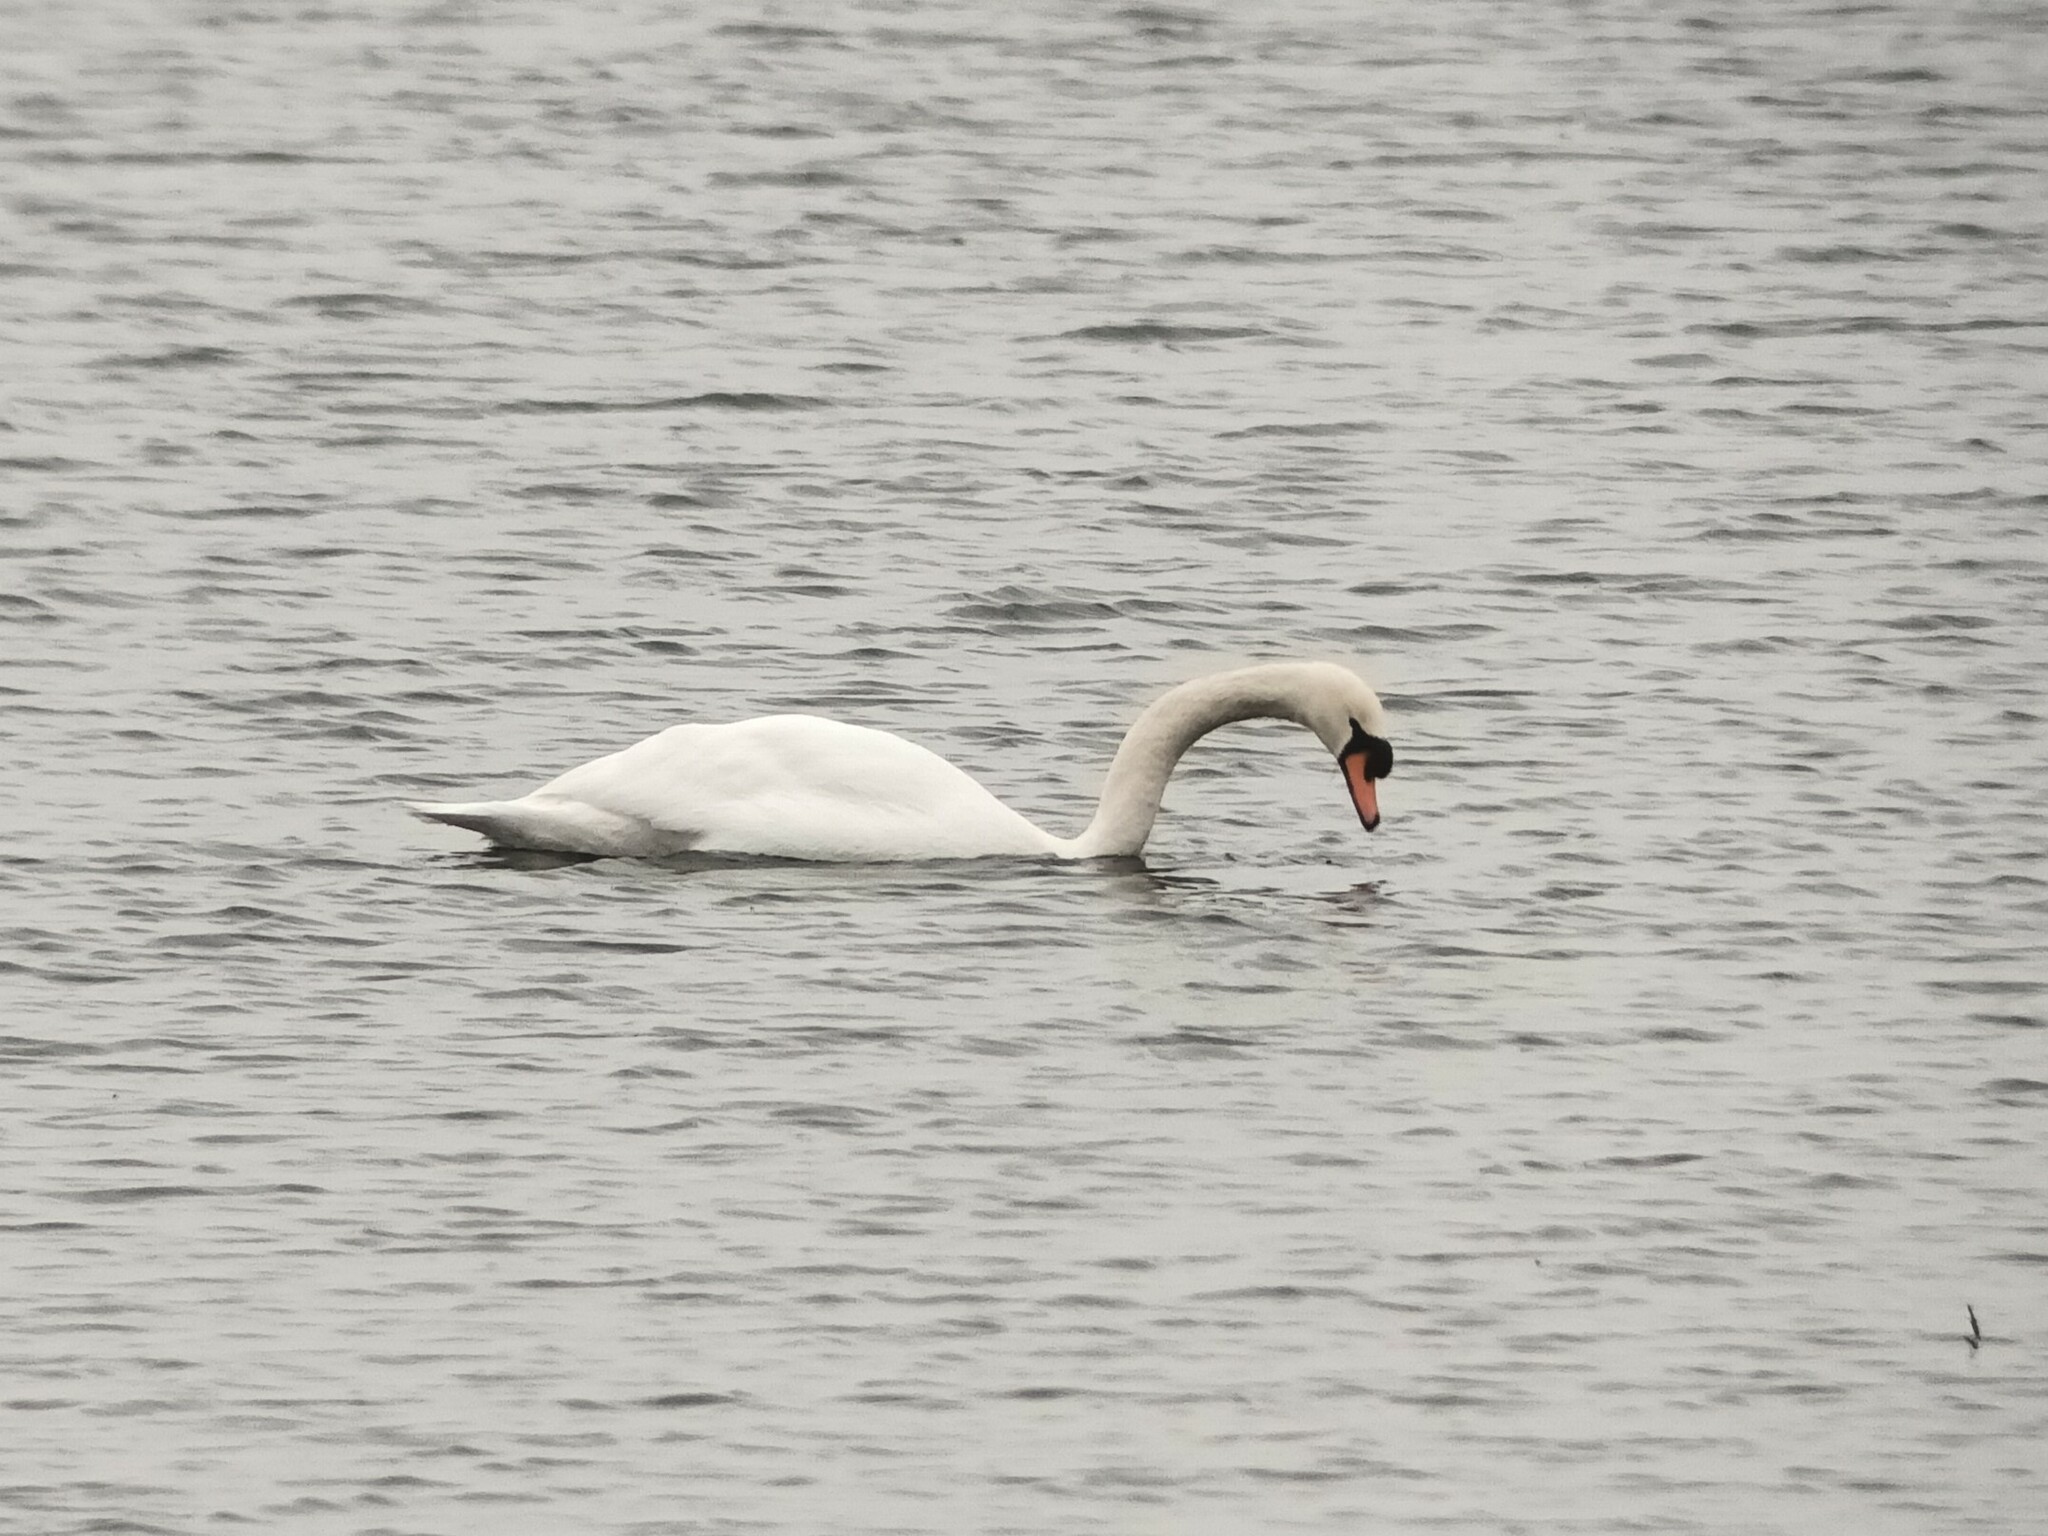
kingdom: Animalia
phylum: Chordata
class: Aves
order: Anseriformes
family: Anatidae
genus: Cygnus
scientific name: Cygnus olor
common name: Mute swan
